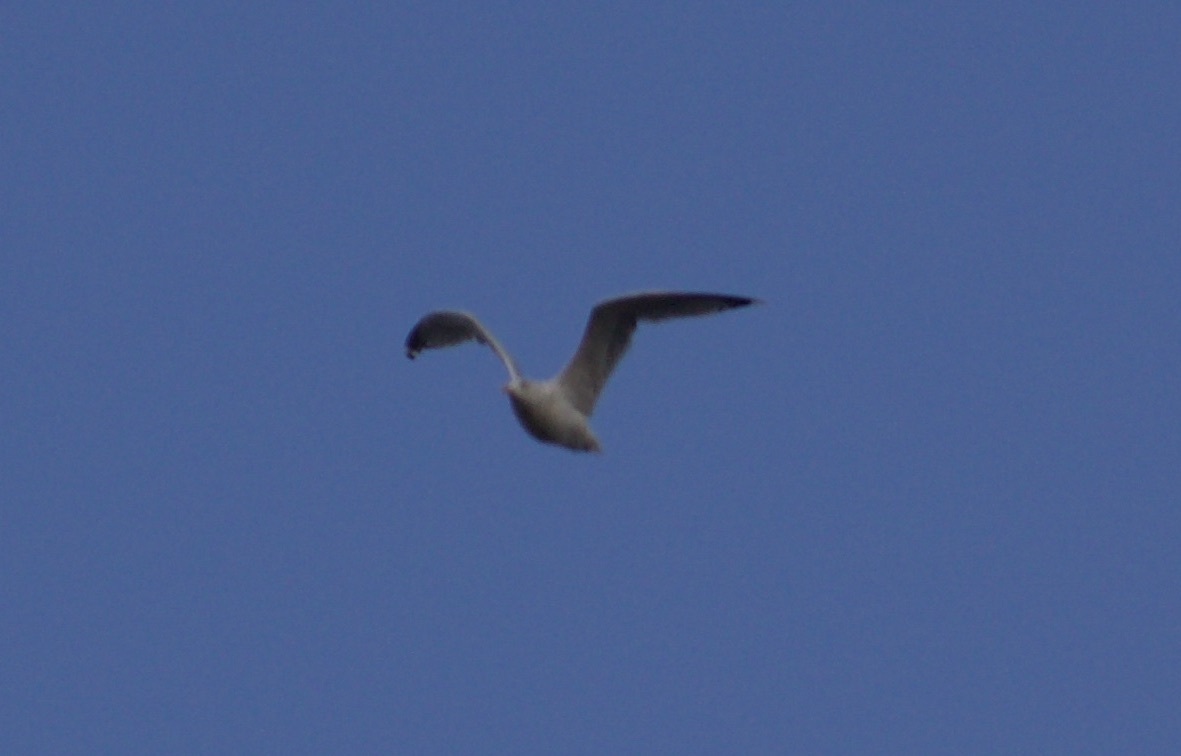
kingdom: Animalia
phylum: Chordata
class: Aves
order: Charadriiformes
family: Laridae
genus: Larus
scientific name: Larus delawarensis
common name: Ring-billed gull
